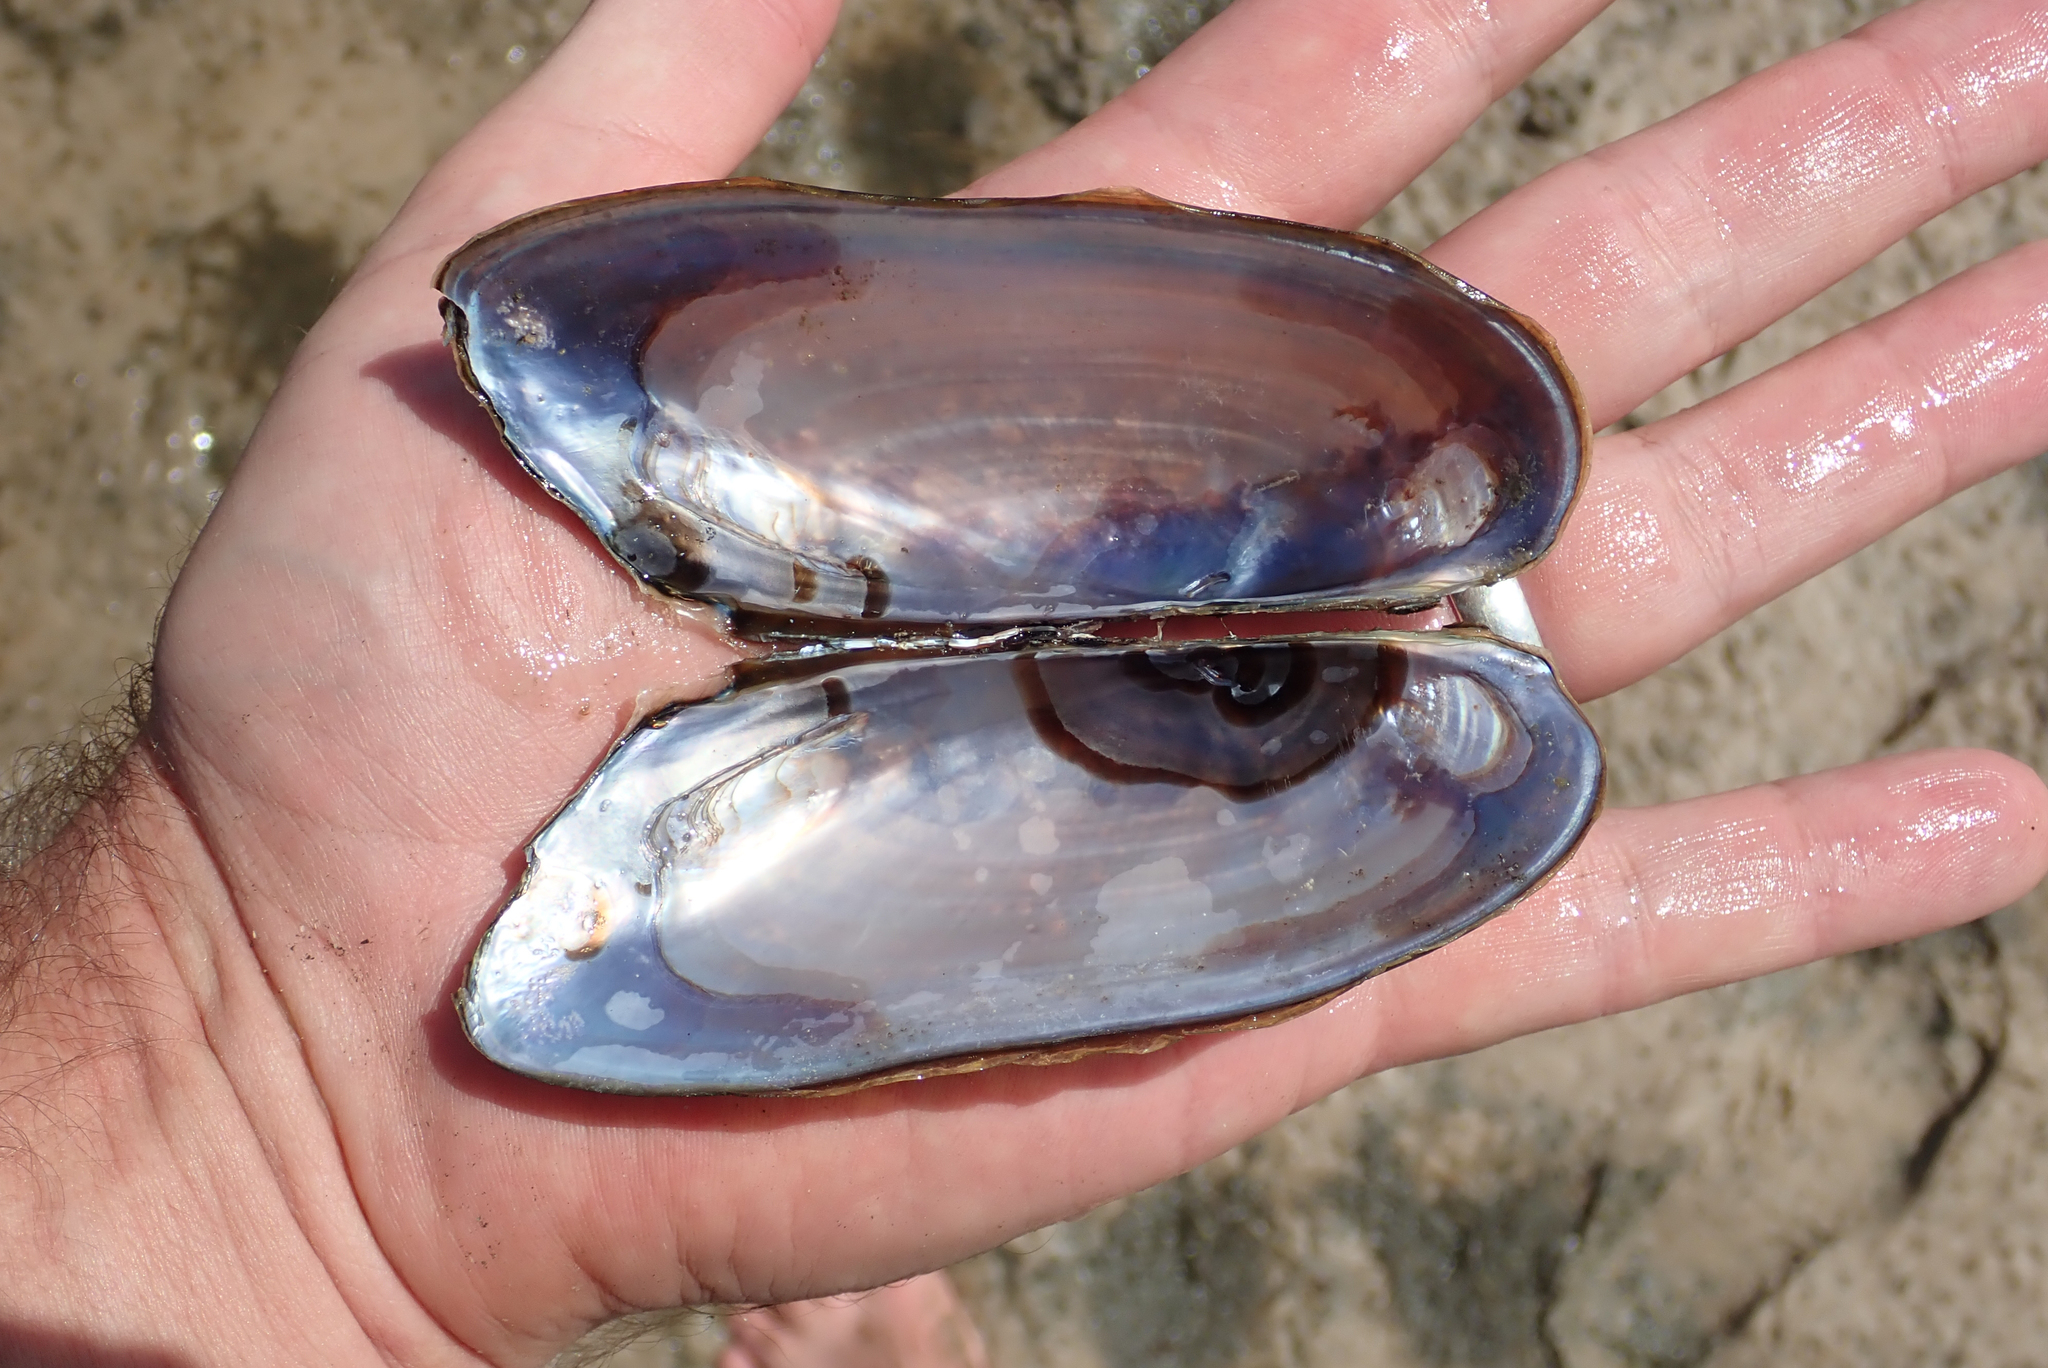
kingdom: Animalia
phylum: Mollusca
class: Bivalvia
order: Unionida
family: Iridinidae
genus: Mutela
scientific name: Mutela zambesiensis
